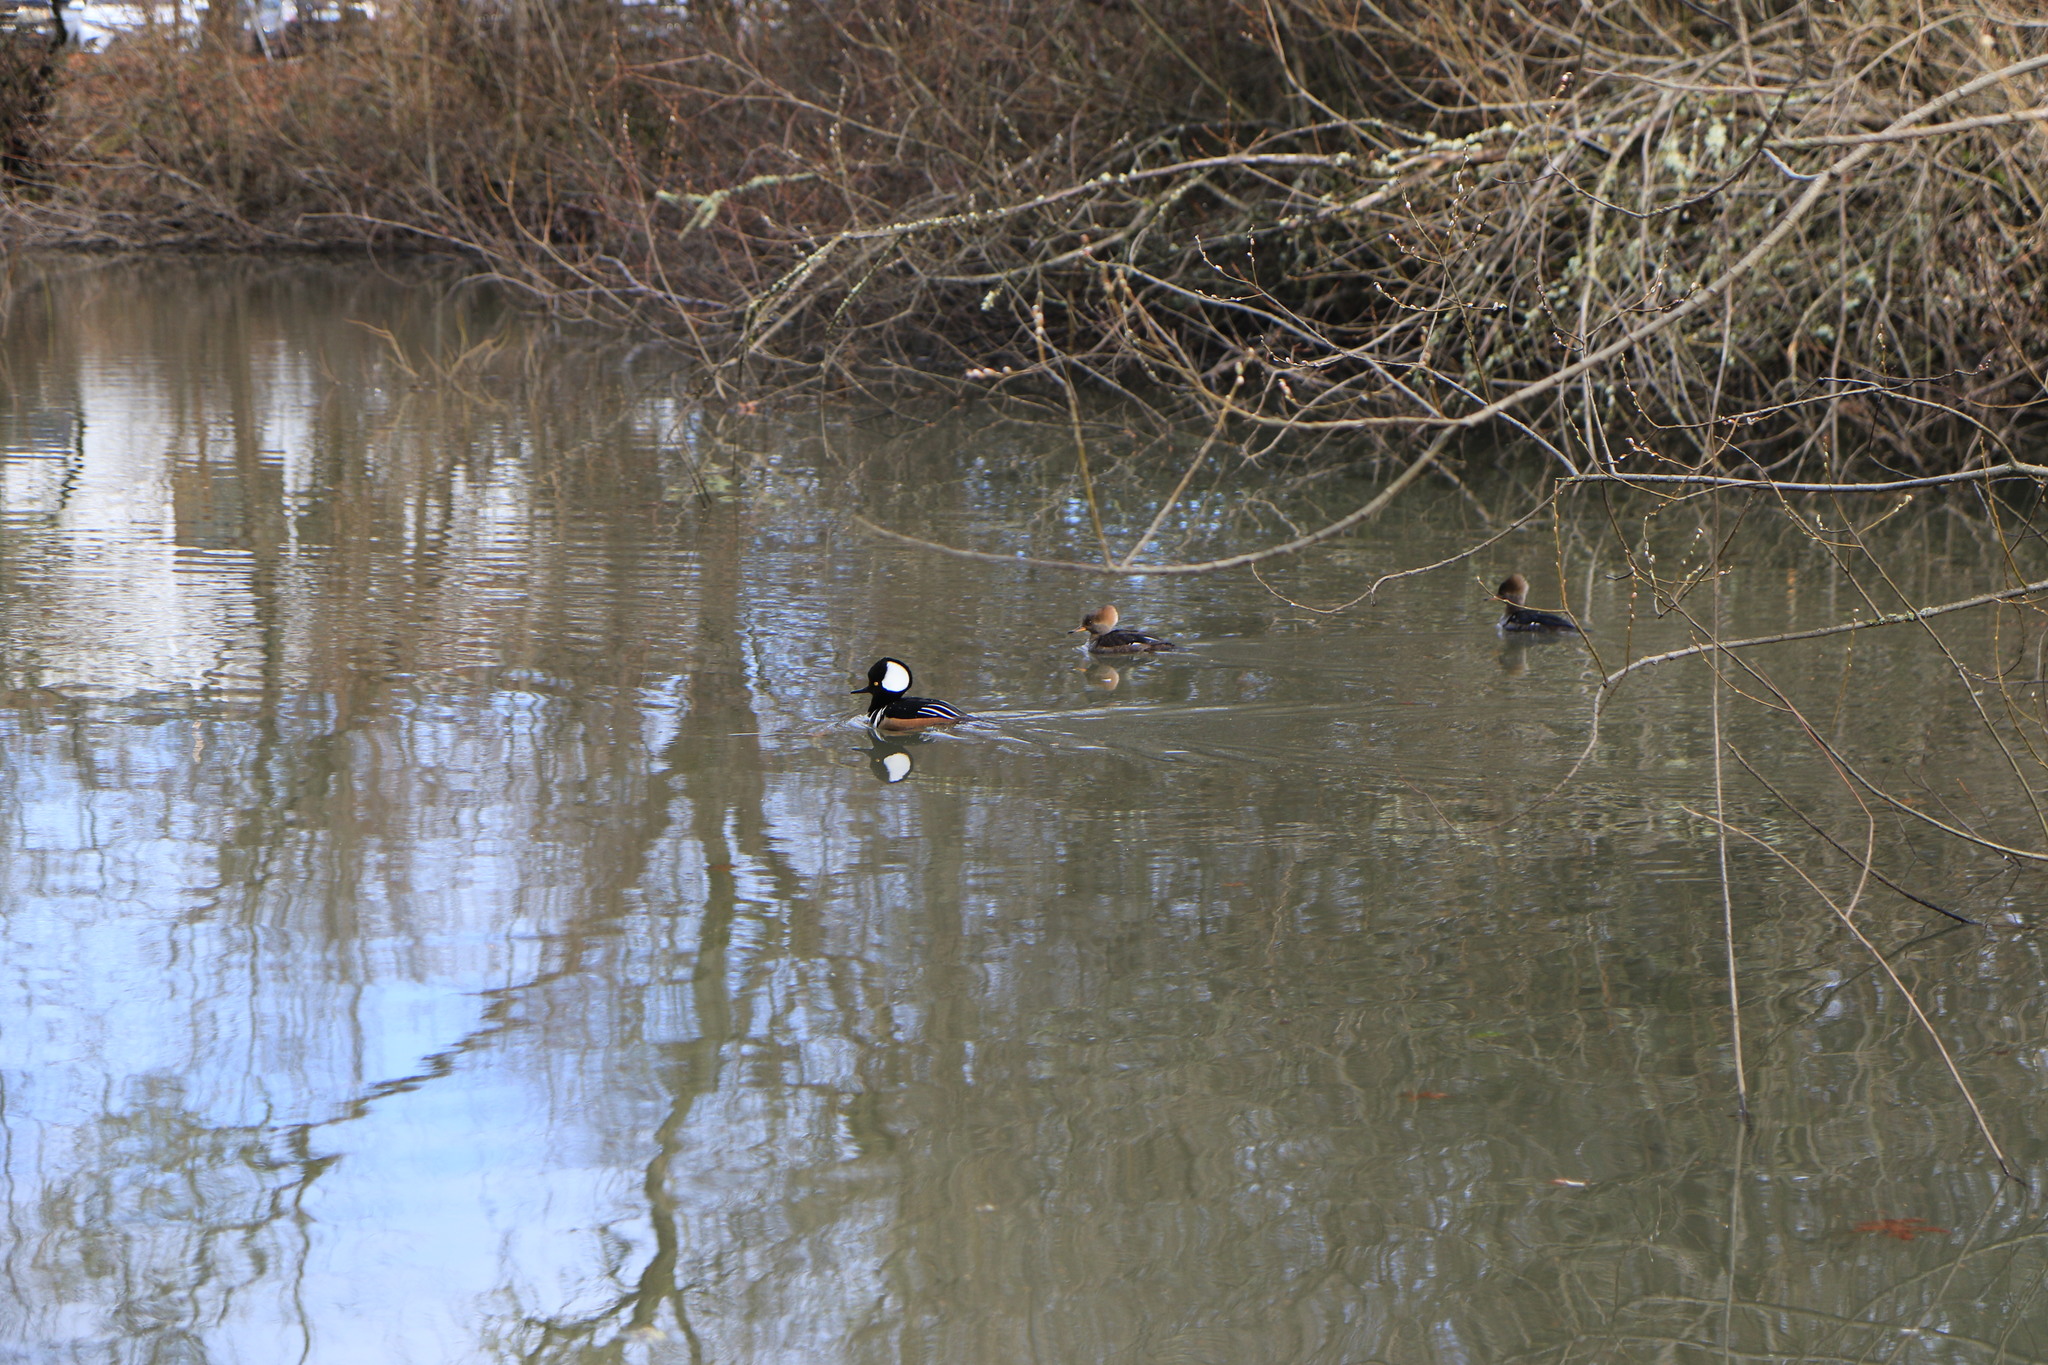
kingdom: Animalia
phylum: Chordata
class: Aves
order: Anseriformes
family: Anatidae
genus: Lophodytes
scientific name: Lophodytes cucullatus
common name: Hooded merganser
